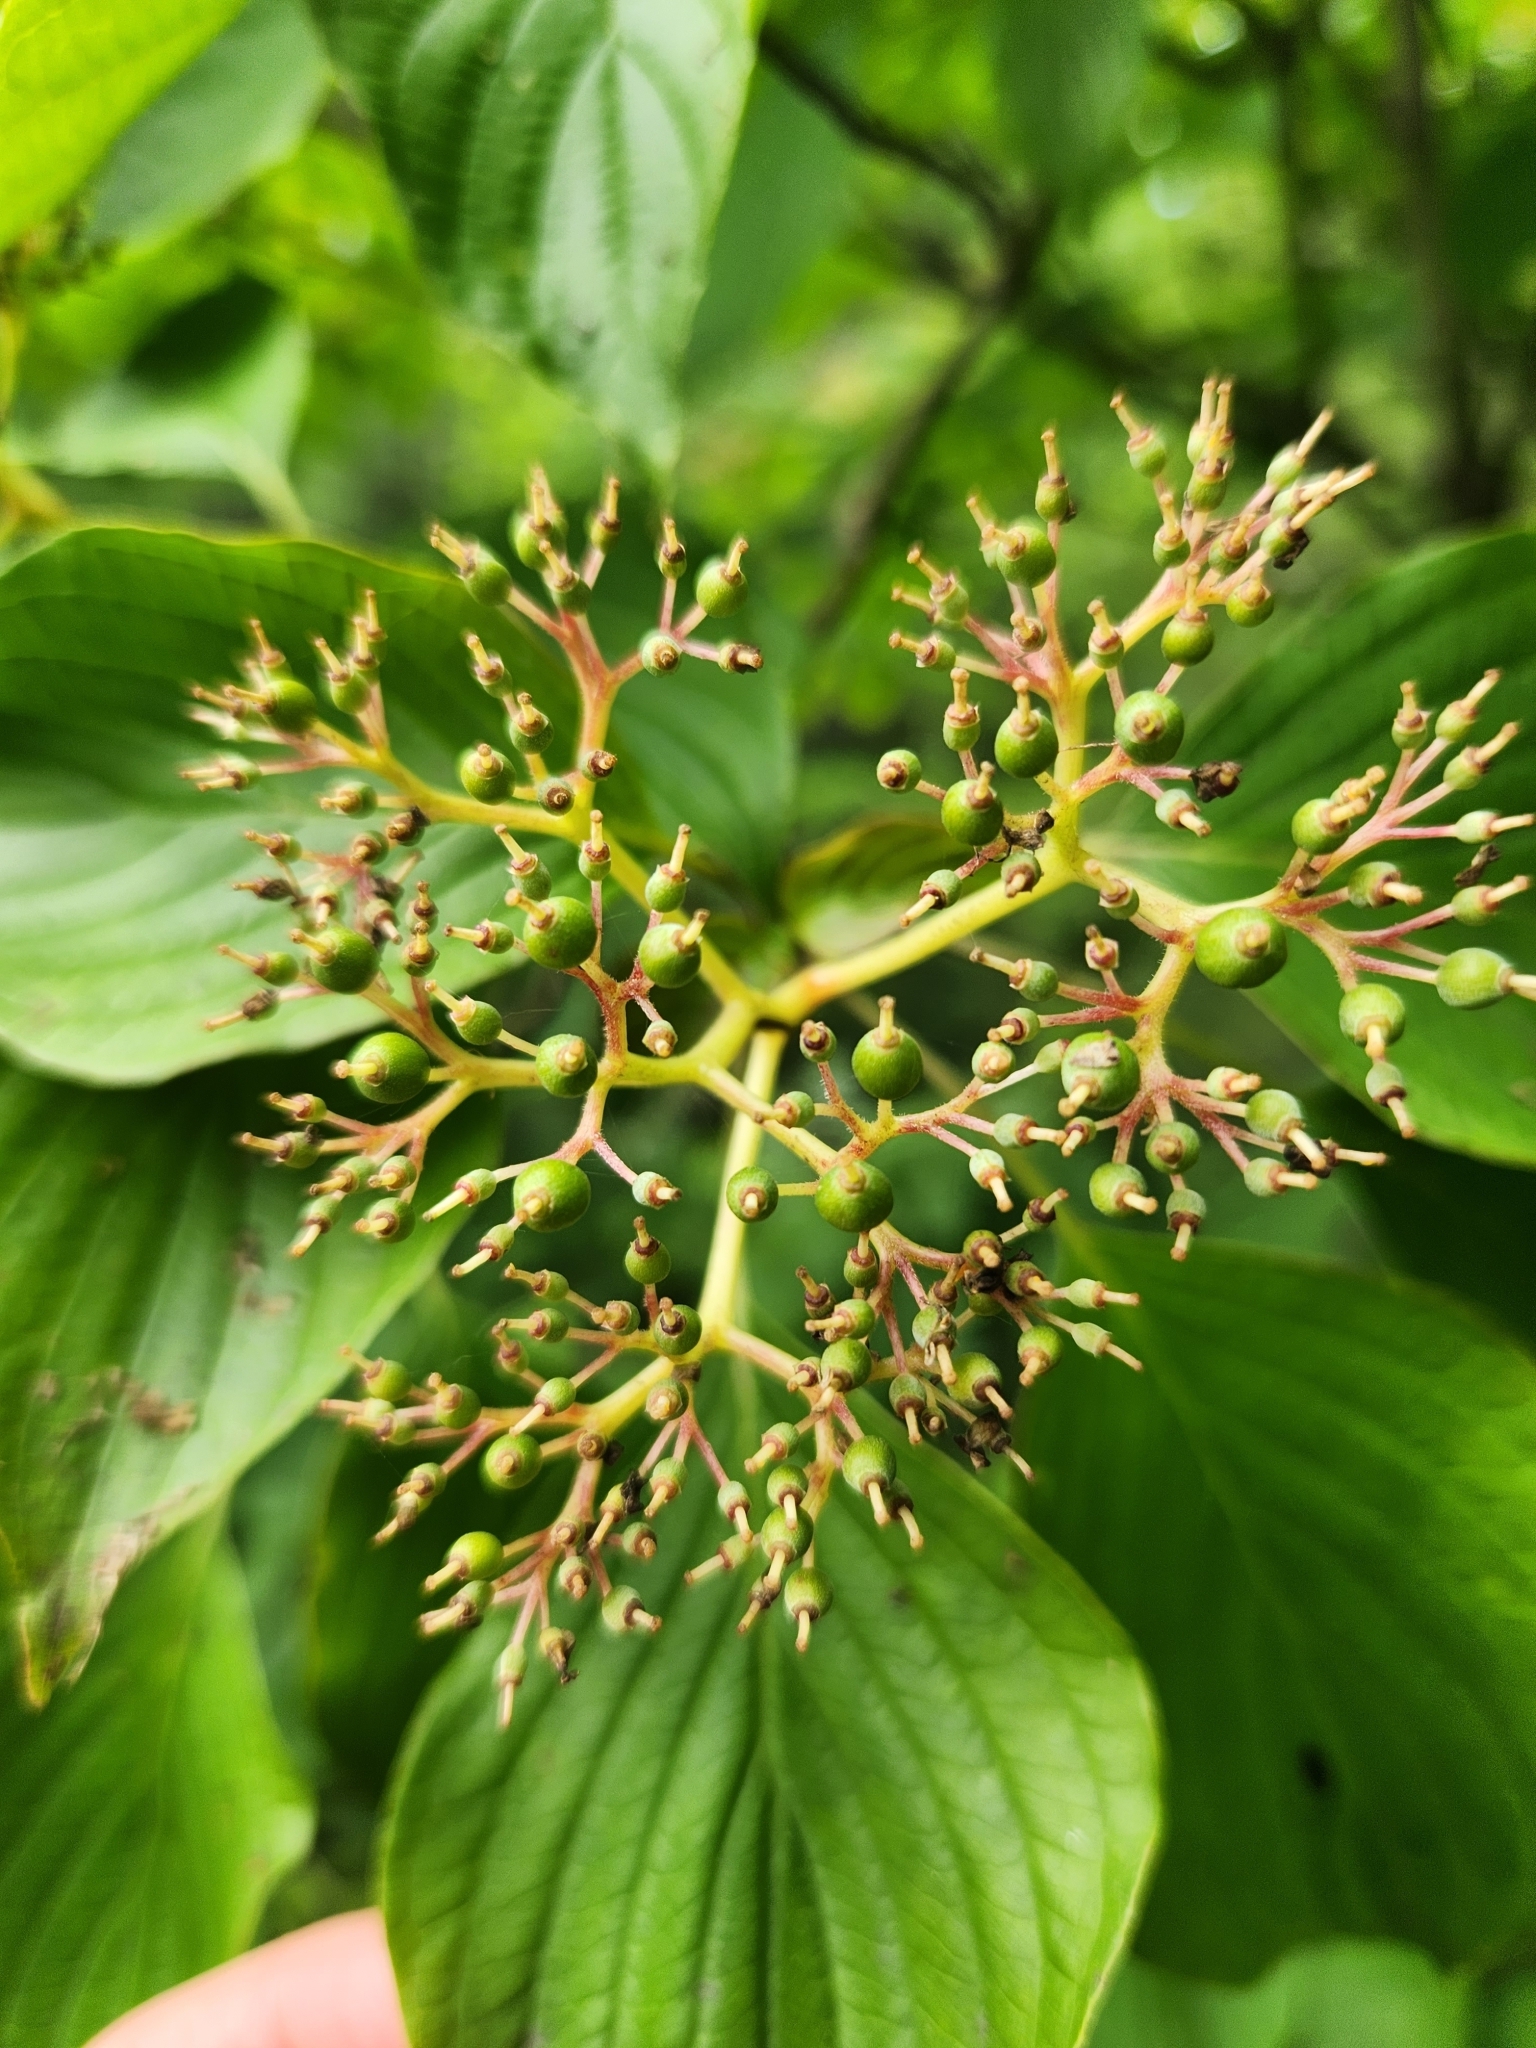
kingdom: Plantae
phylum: Tracheophyta
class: Magnoliopsida
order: Cornales
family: Cornaceae
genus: Cornus
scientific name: Cornus alternifolia
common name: Pagoda dogwood
